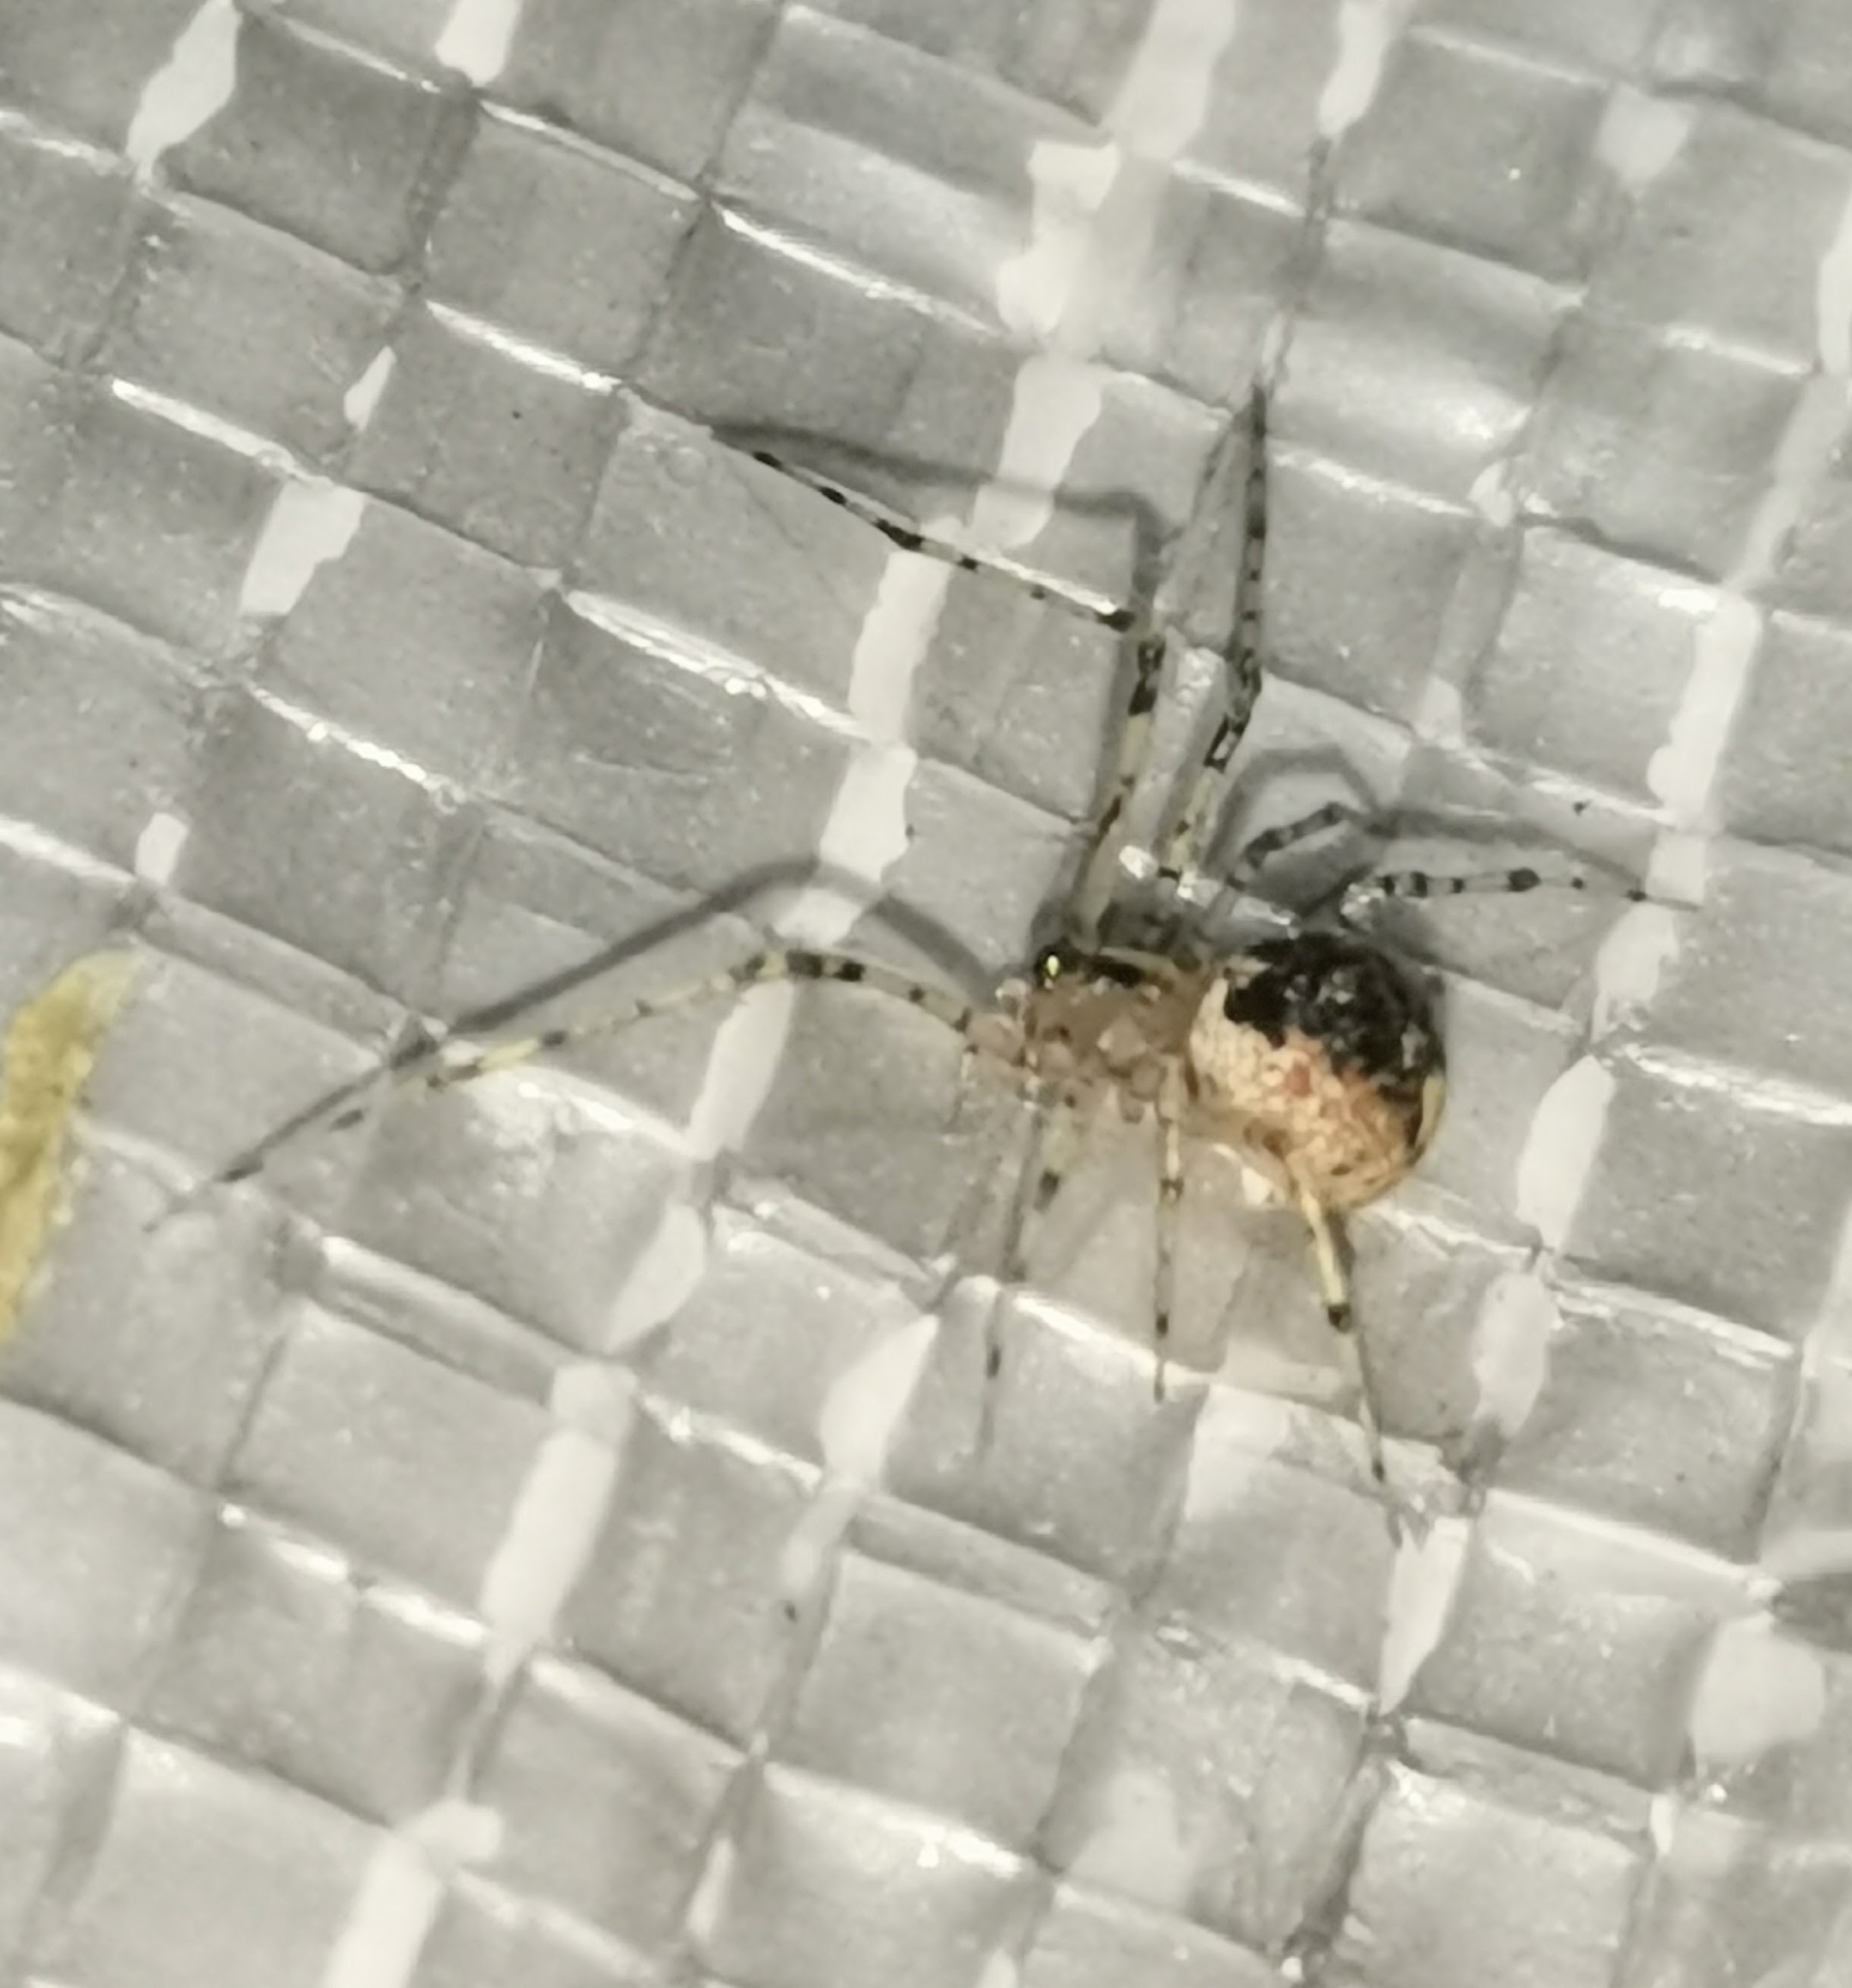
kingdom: Animalia
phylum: Arthropoda
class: Arachnida
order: Araneae
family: Theridiidae
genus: Platnickina
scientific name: Platnickina tincta
